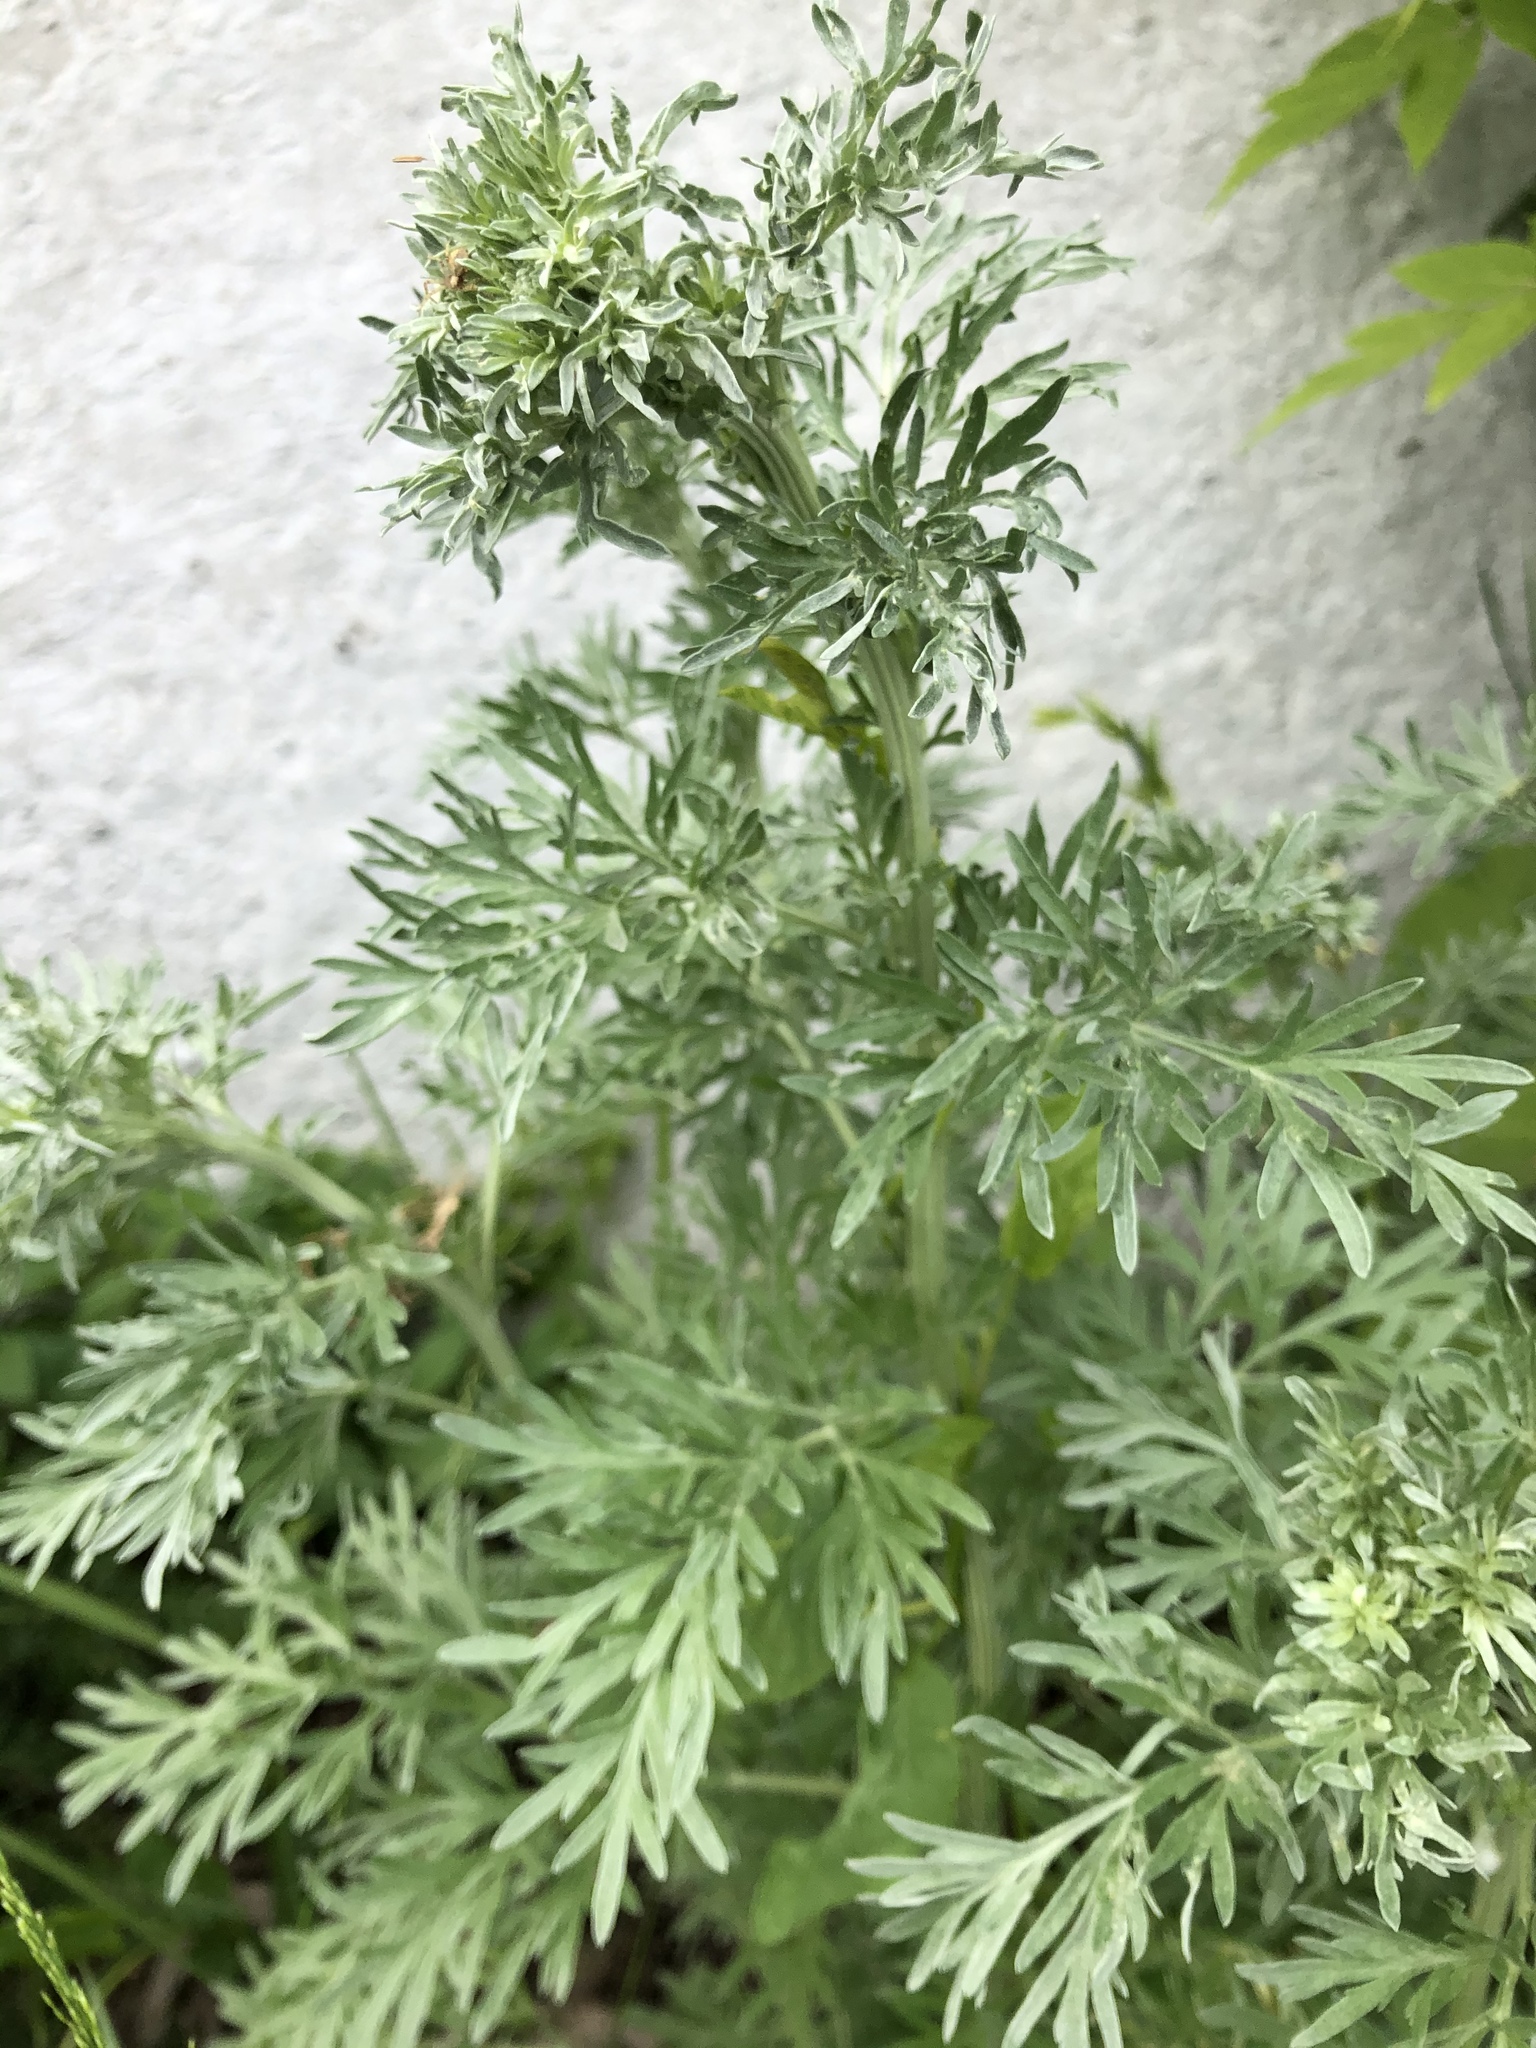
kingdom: Plantae
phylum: Tracheophyta
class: Magnoliopsida
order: Asterales
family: Asteraceae
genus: Artemisia
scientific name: Artemisia absinthium
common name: Wormwood
